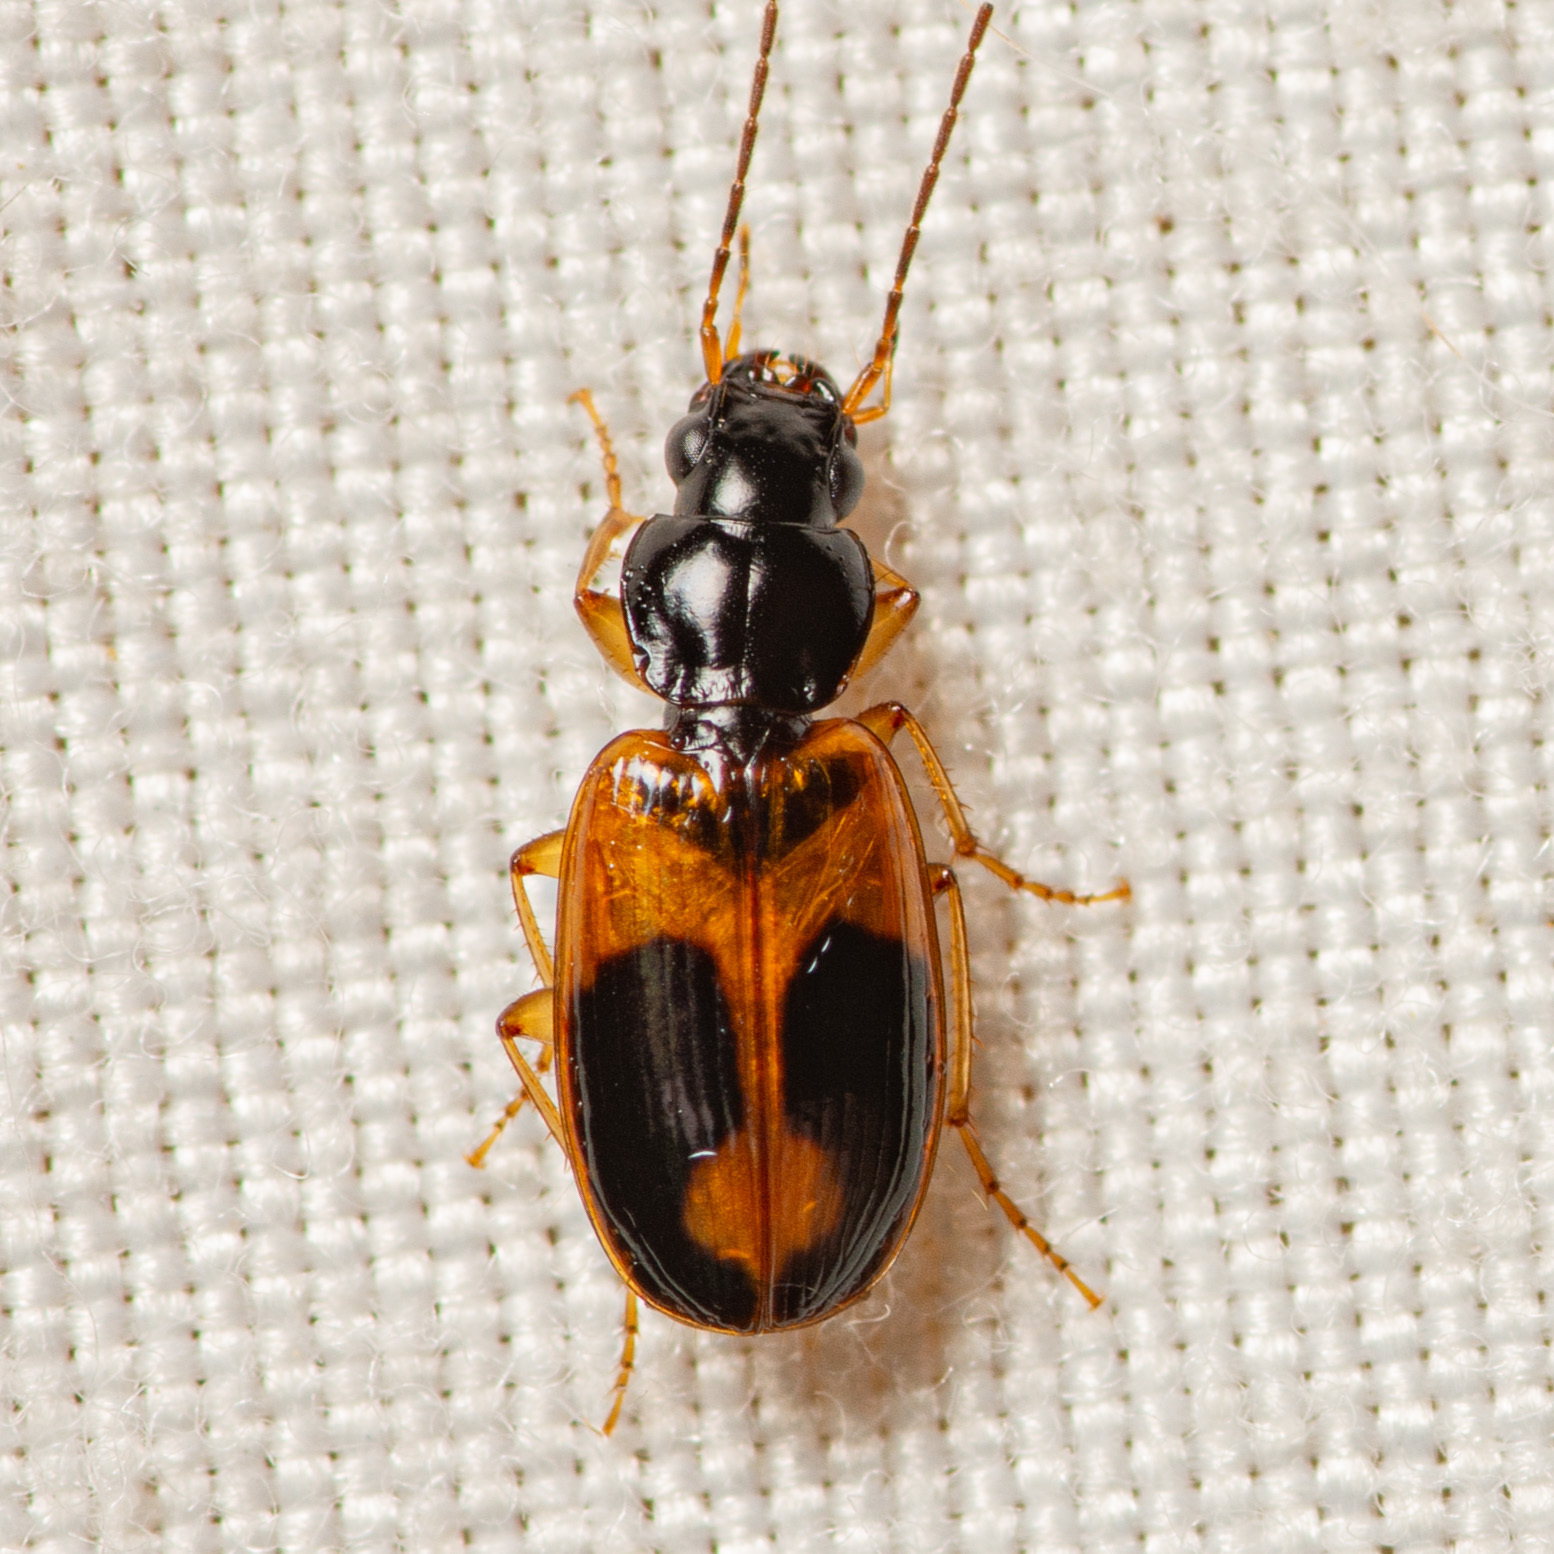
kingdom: Animalia
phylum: Arthropoda
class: Insecta
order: Coleoptera
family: Carabidae
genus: Badister
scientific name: Badister elegans
